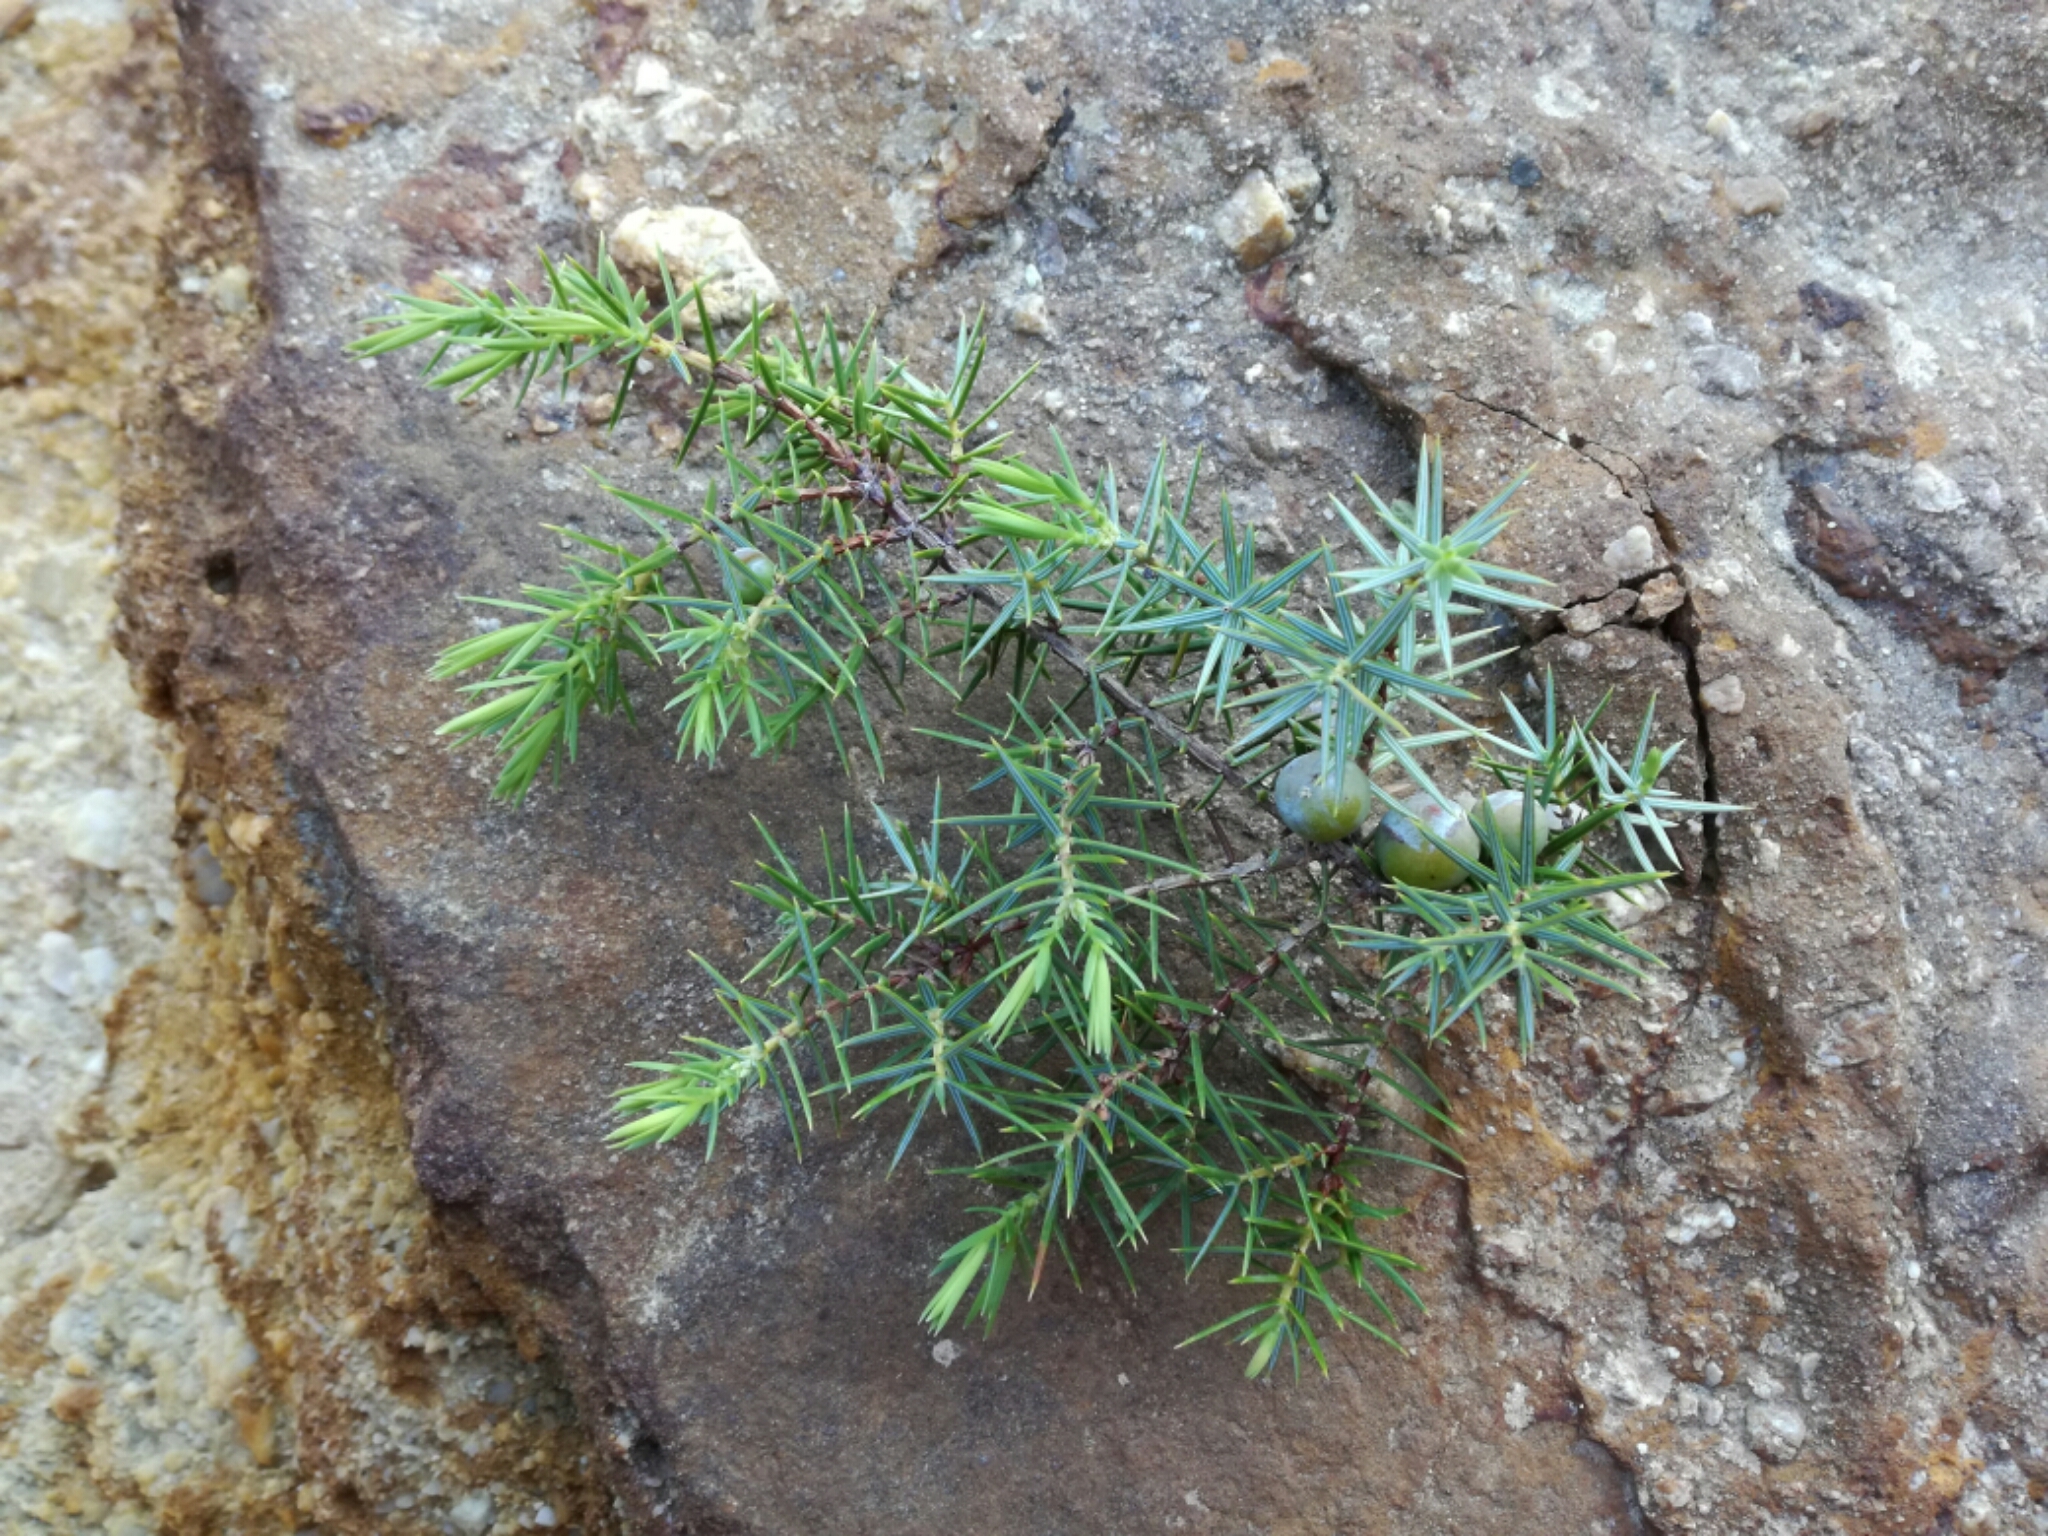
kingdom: Plantae
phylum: Tracheophyta
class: Pinopsida
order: Pinales
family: Cupressaceae
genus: Juniperus
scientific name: Juniperus oxycedrus
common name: Prickly juniper
